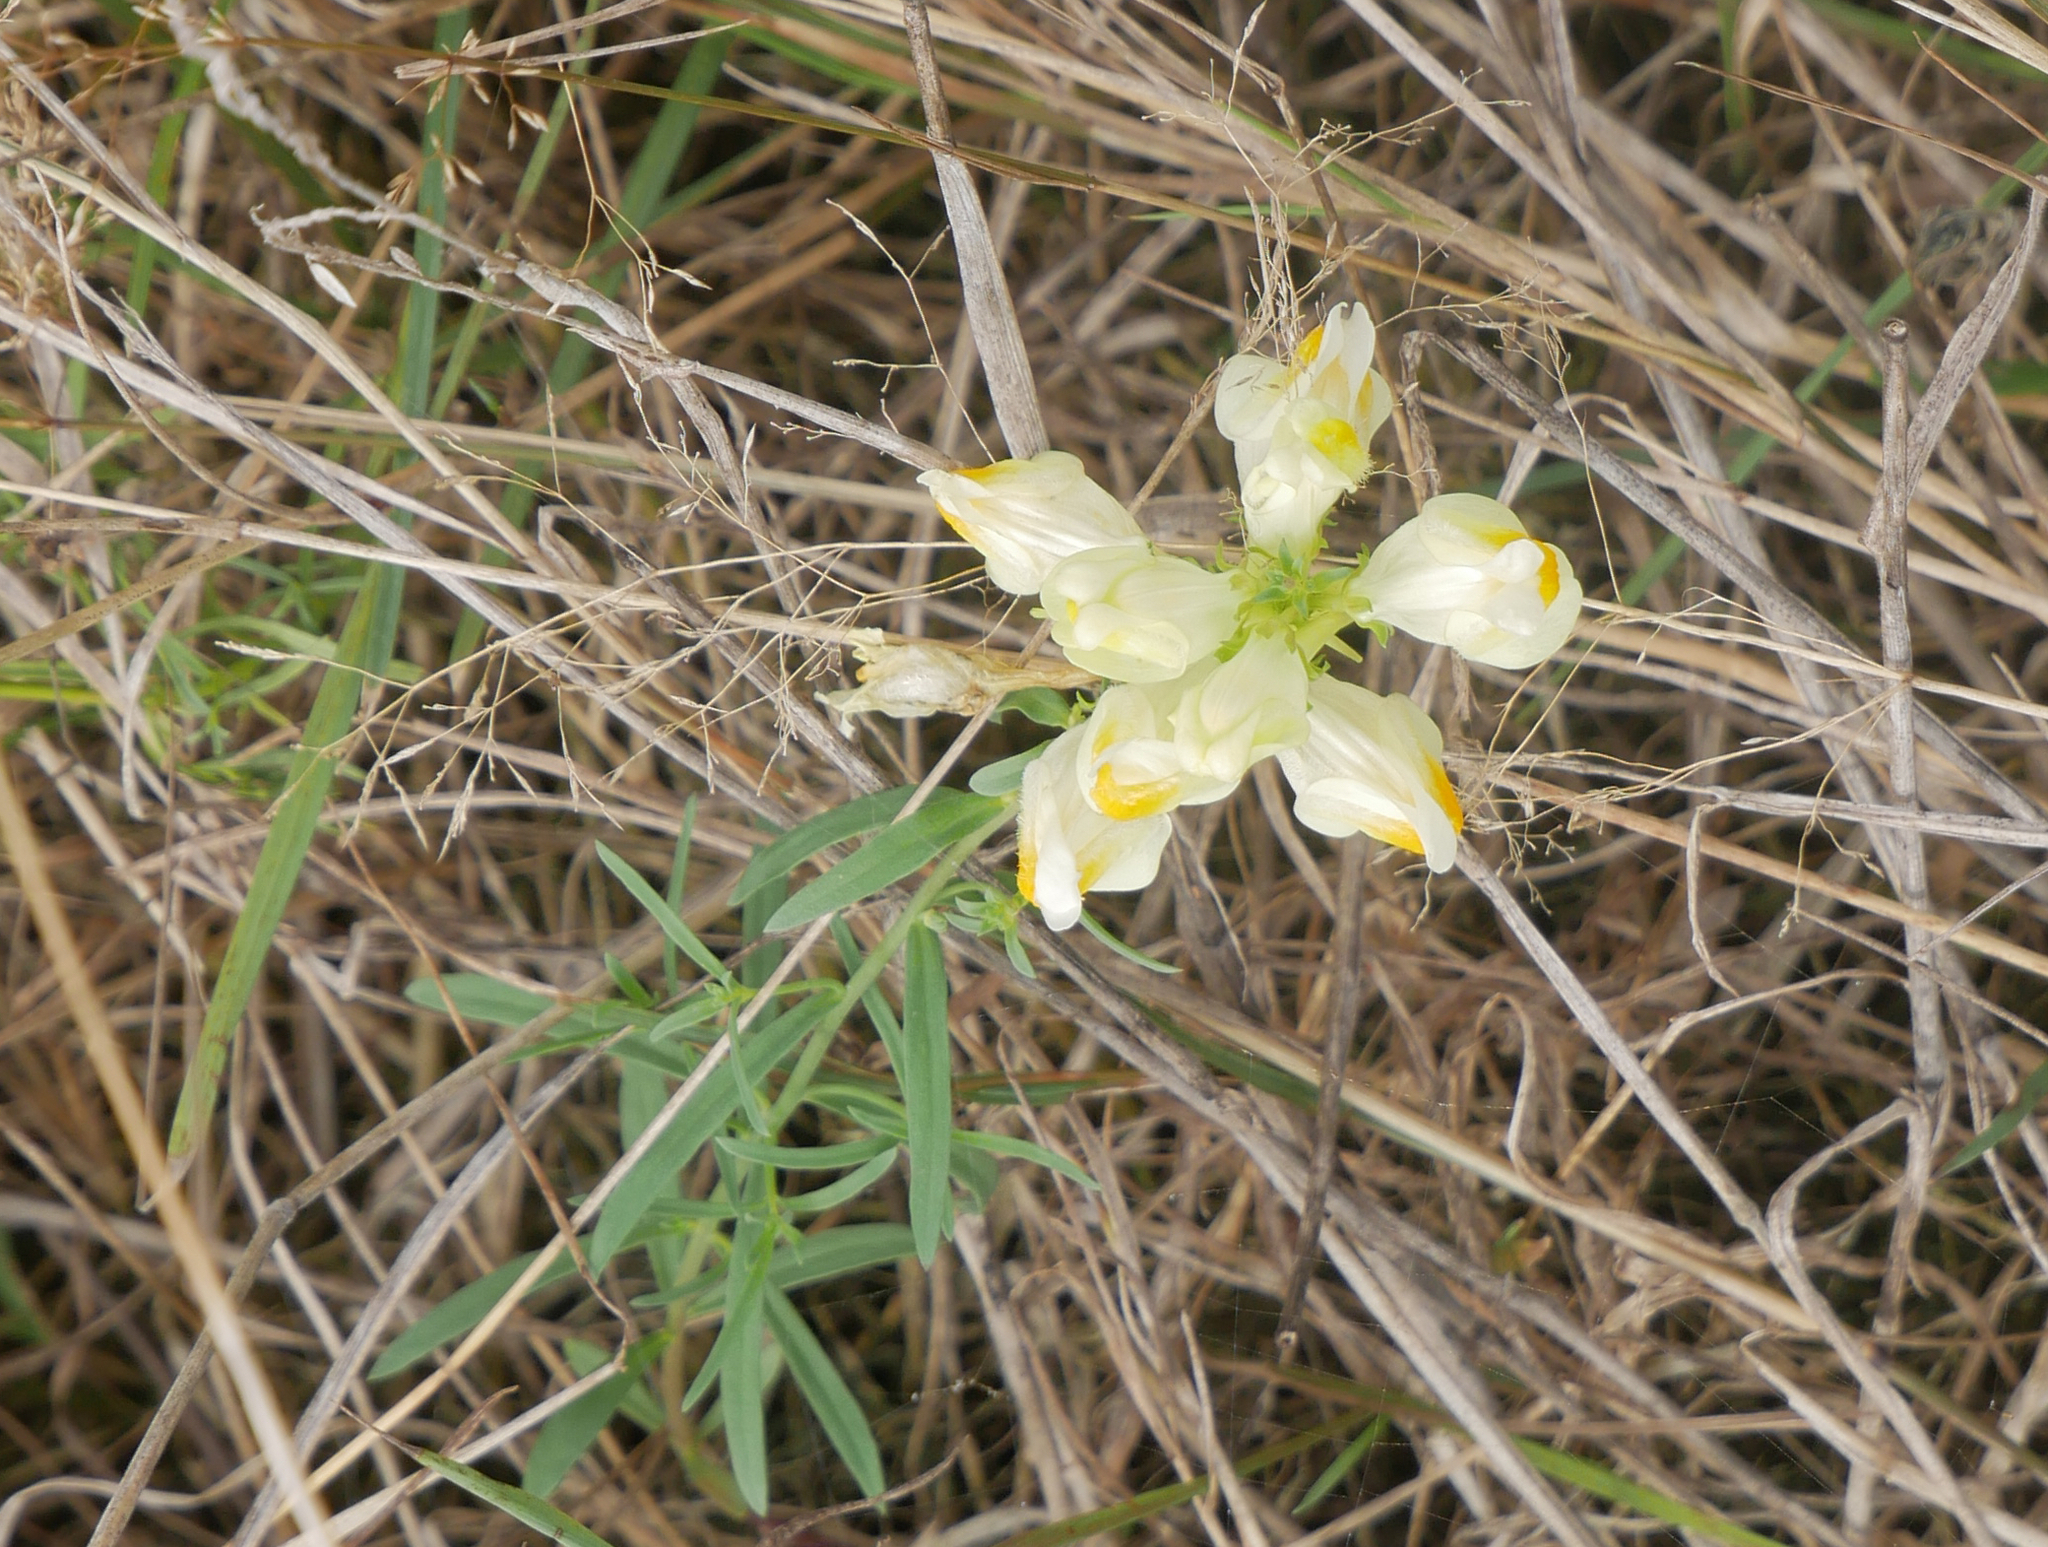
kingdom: Plantae
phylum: Tracheophyta
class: Magnoliopsida
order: Lamiales
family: Plantaginaceae
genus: Linaria
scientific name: Linaria vulgaris
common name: Butter and eggs
